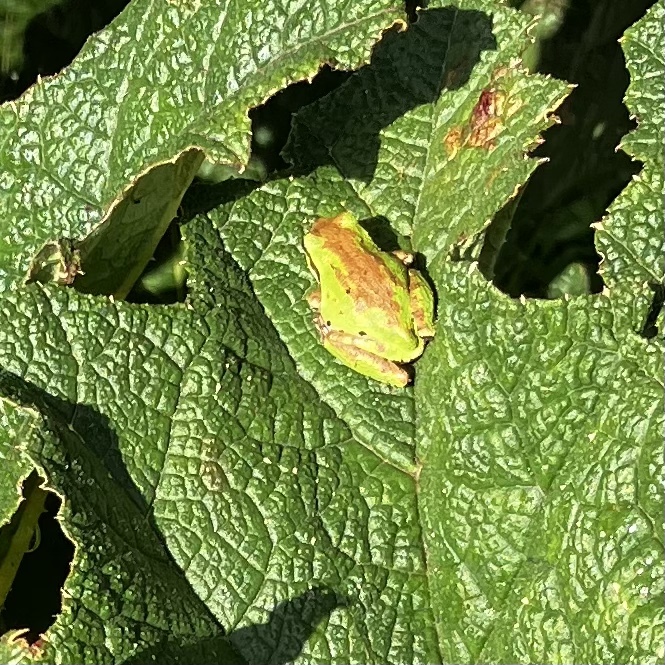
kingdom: Animalia
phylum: Chordata
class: Amphibia
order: Anura
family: Hylidae
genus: Pseudacris
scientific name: Pseudacris regilla
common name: Pacific chorus frog
